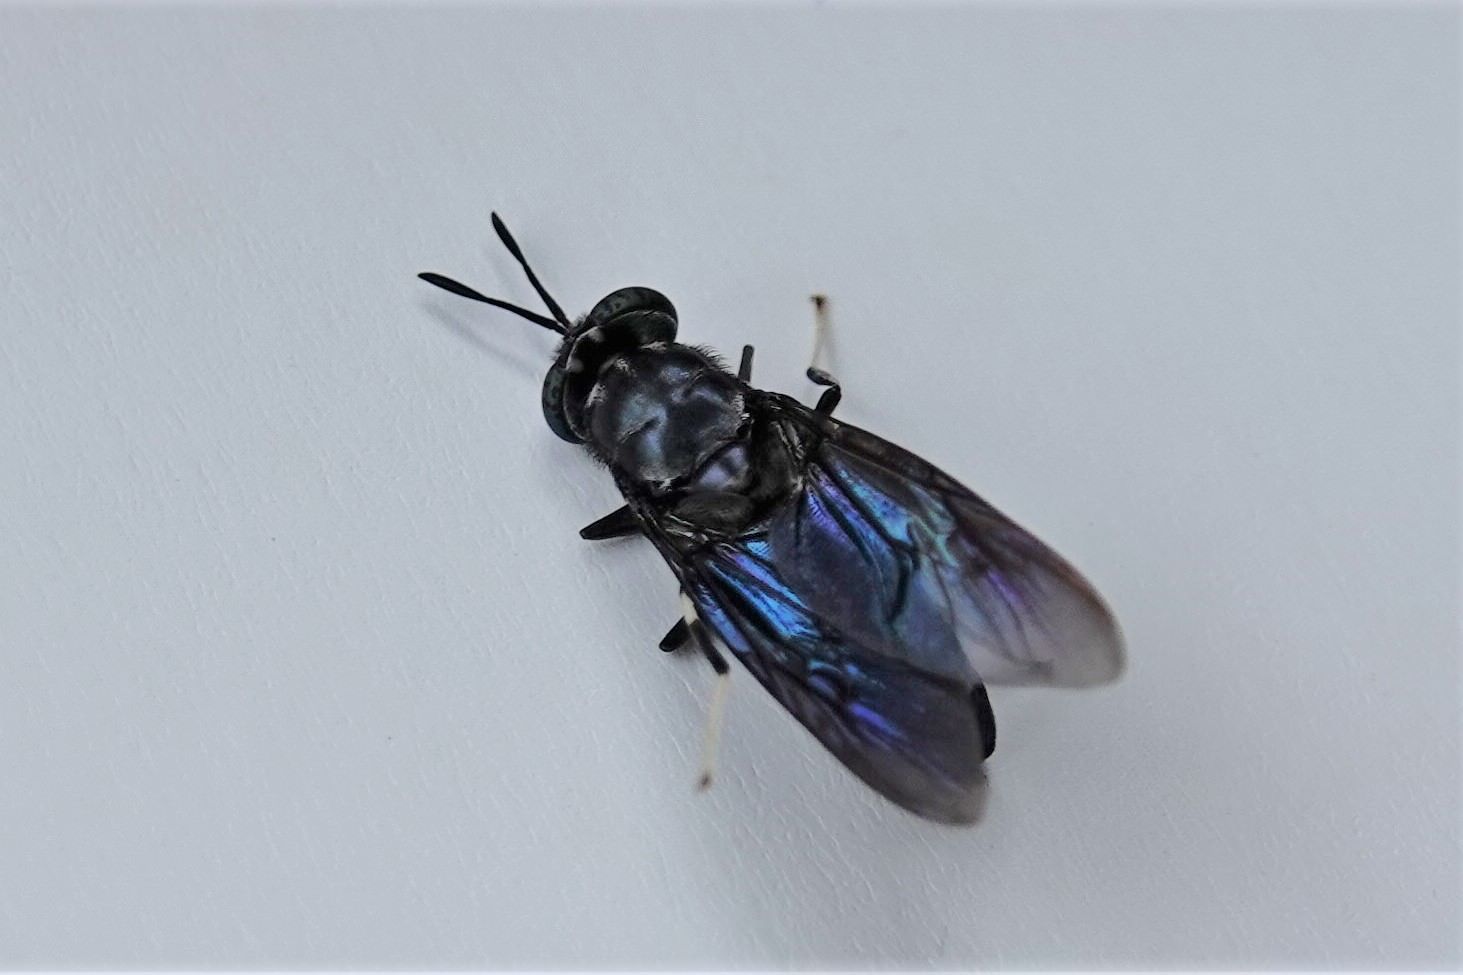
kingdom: Animalia
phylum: Arthropoda
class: Insecta
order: Diptera
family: Stratiomyidae
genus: Hermetia
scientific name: Hermetia illucens
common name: Black soldier fly
